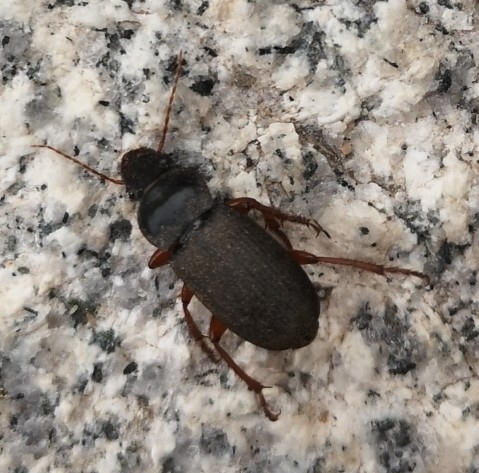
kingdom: Animalia
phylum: Arthropoda
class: Insecta
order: Coleoptera
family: Carabidae
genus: Harpalus
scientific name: Harpalus rufipes
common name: Strawberry harp ground beetle
